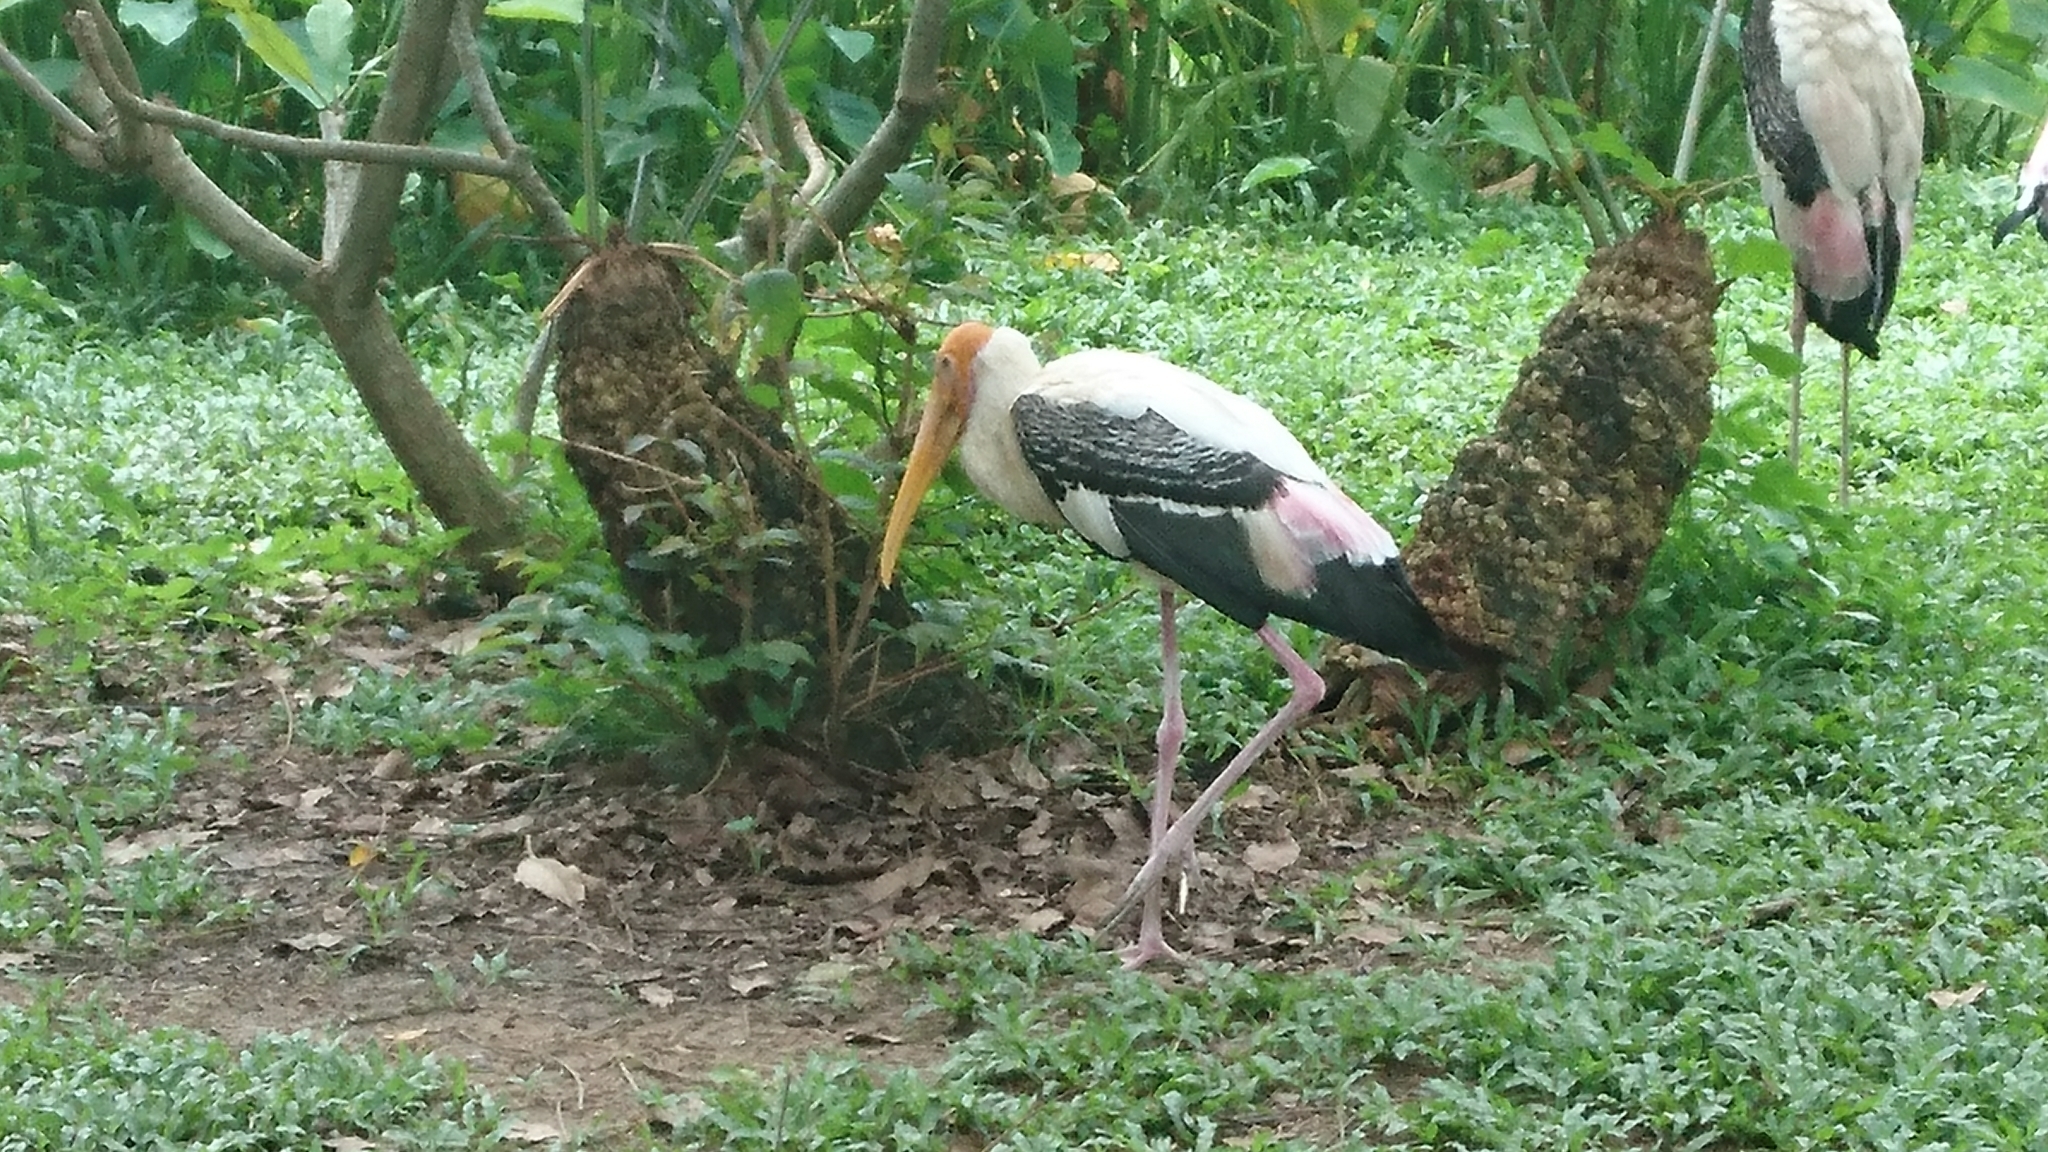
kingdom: Animalia
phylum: Chordata
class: Aves
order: Ciconiiformes
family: Ciconiidae
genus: Mycteria
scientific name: Mycteria leucocephala
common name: Painted stork
